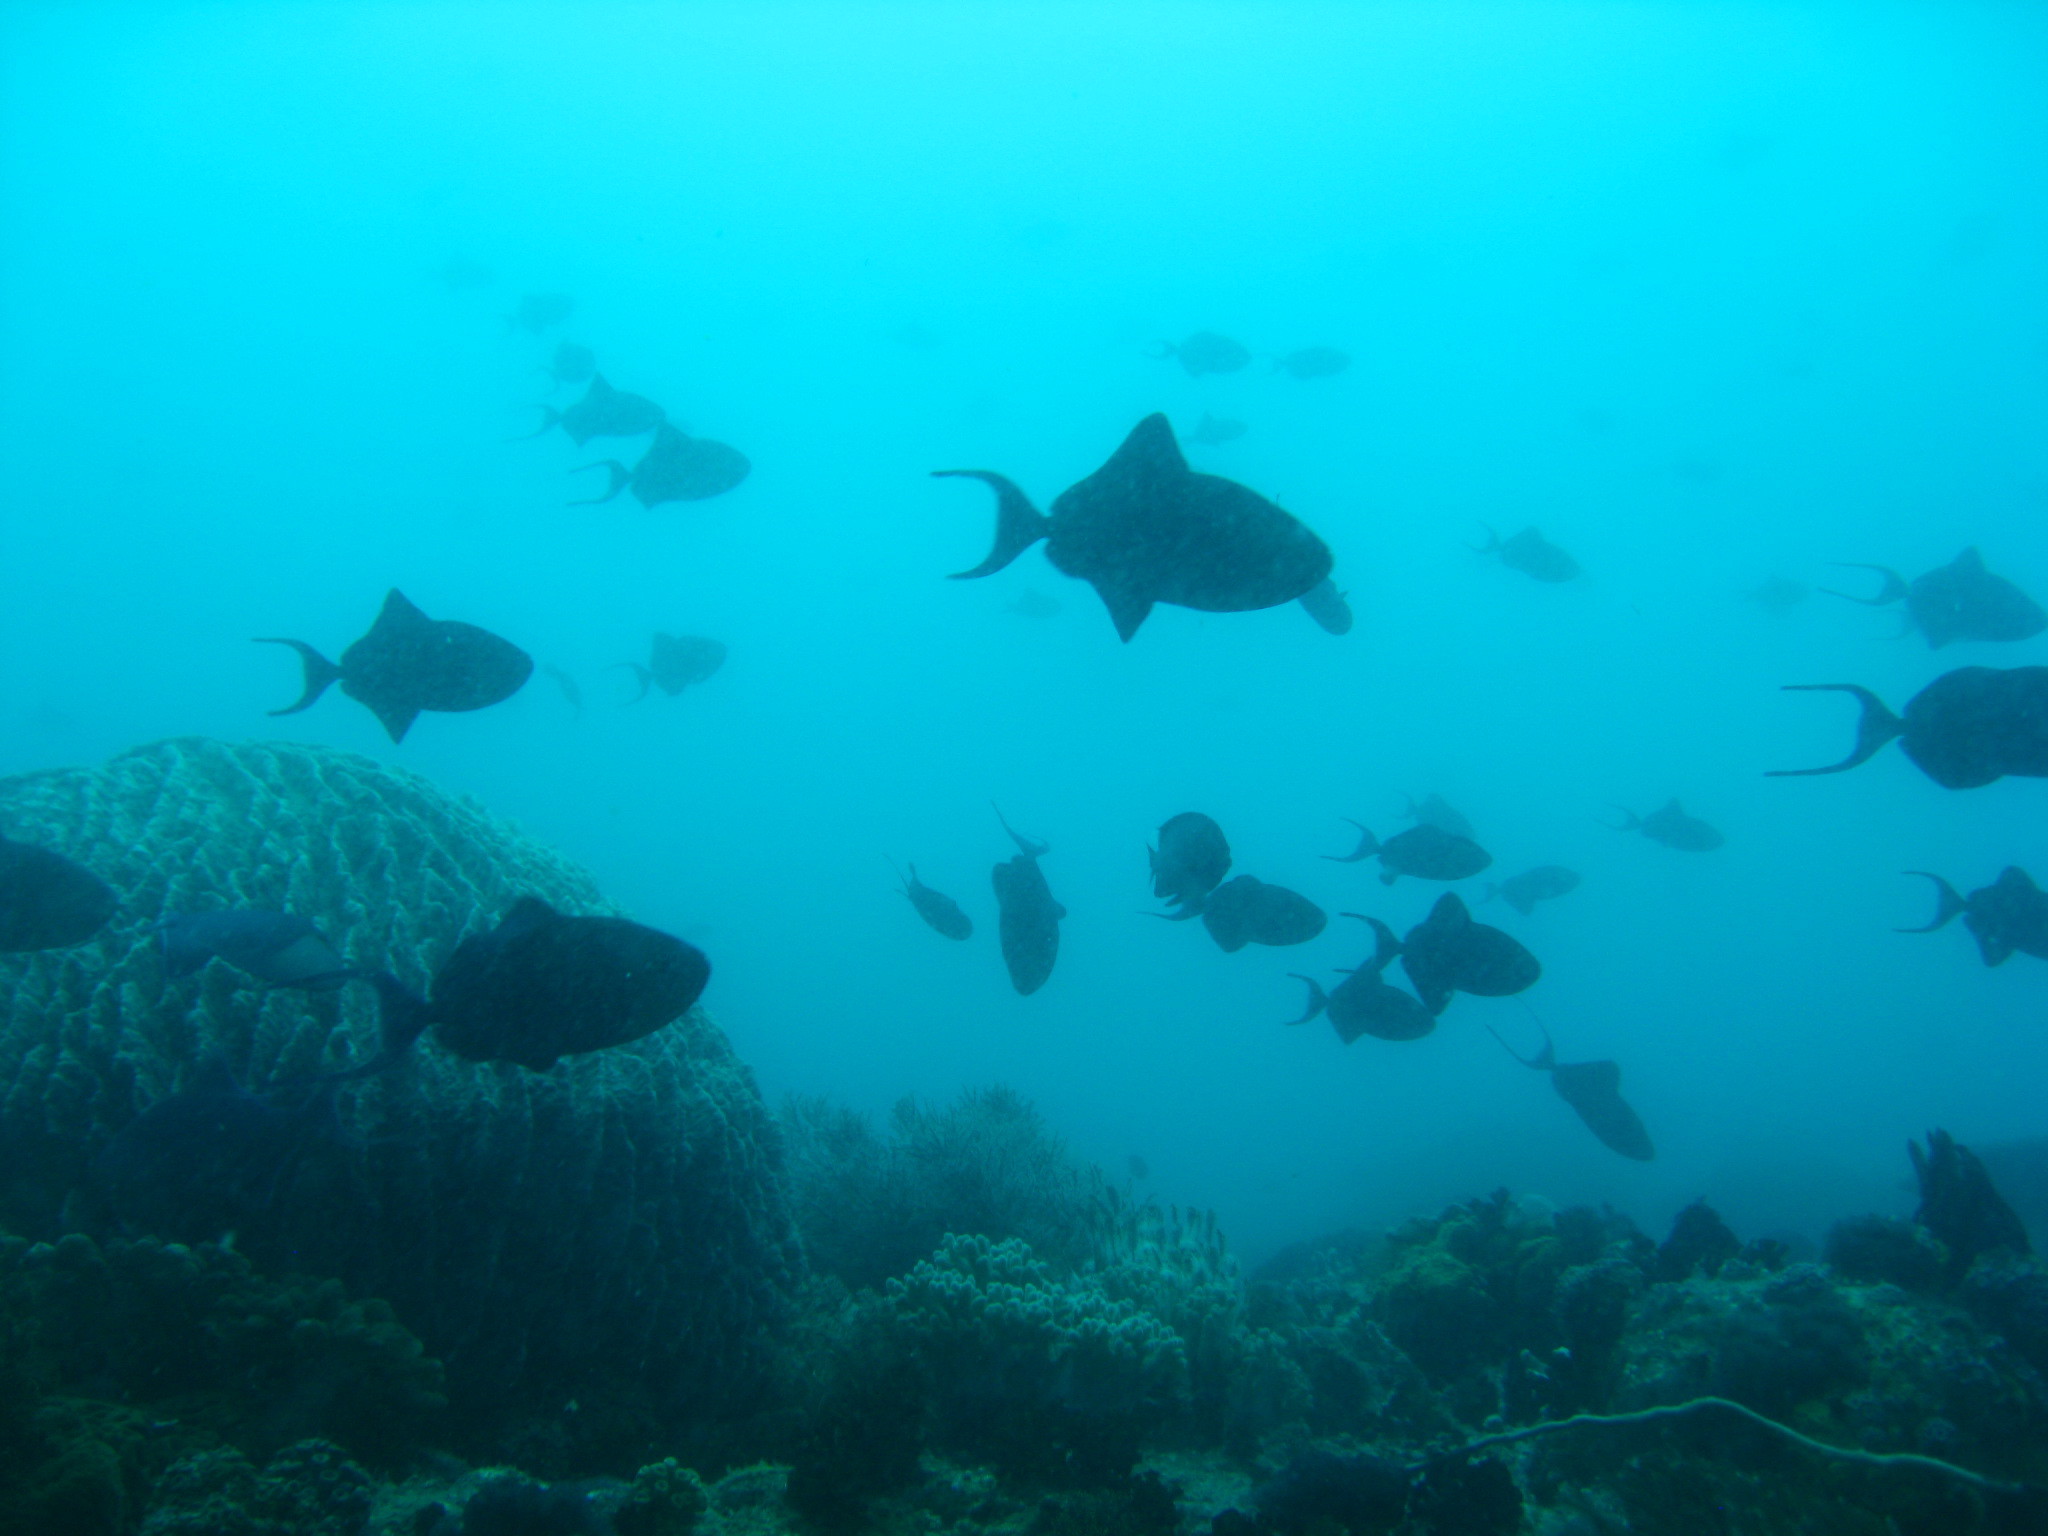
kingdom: Animalia
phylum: Chordata
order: Tetraodontiformes
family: Balistidae
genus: Odonus
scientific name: Odonus niger
